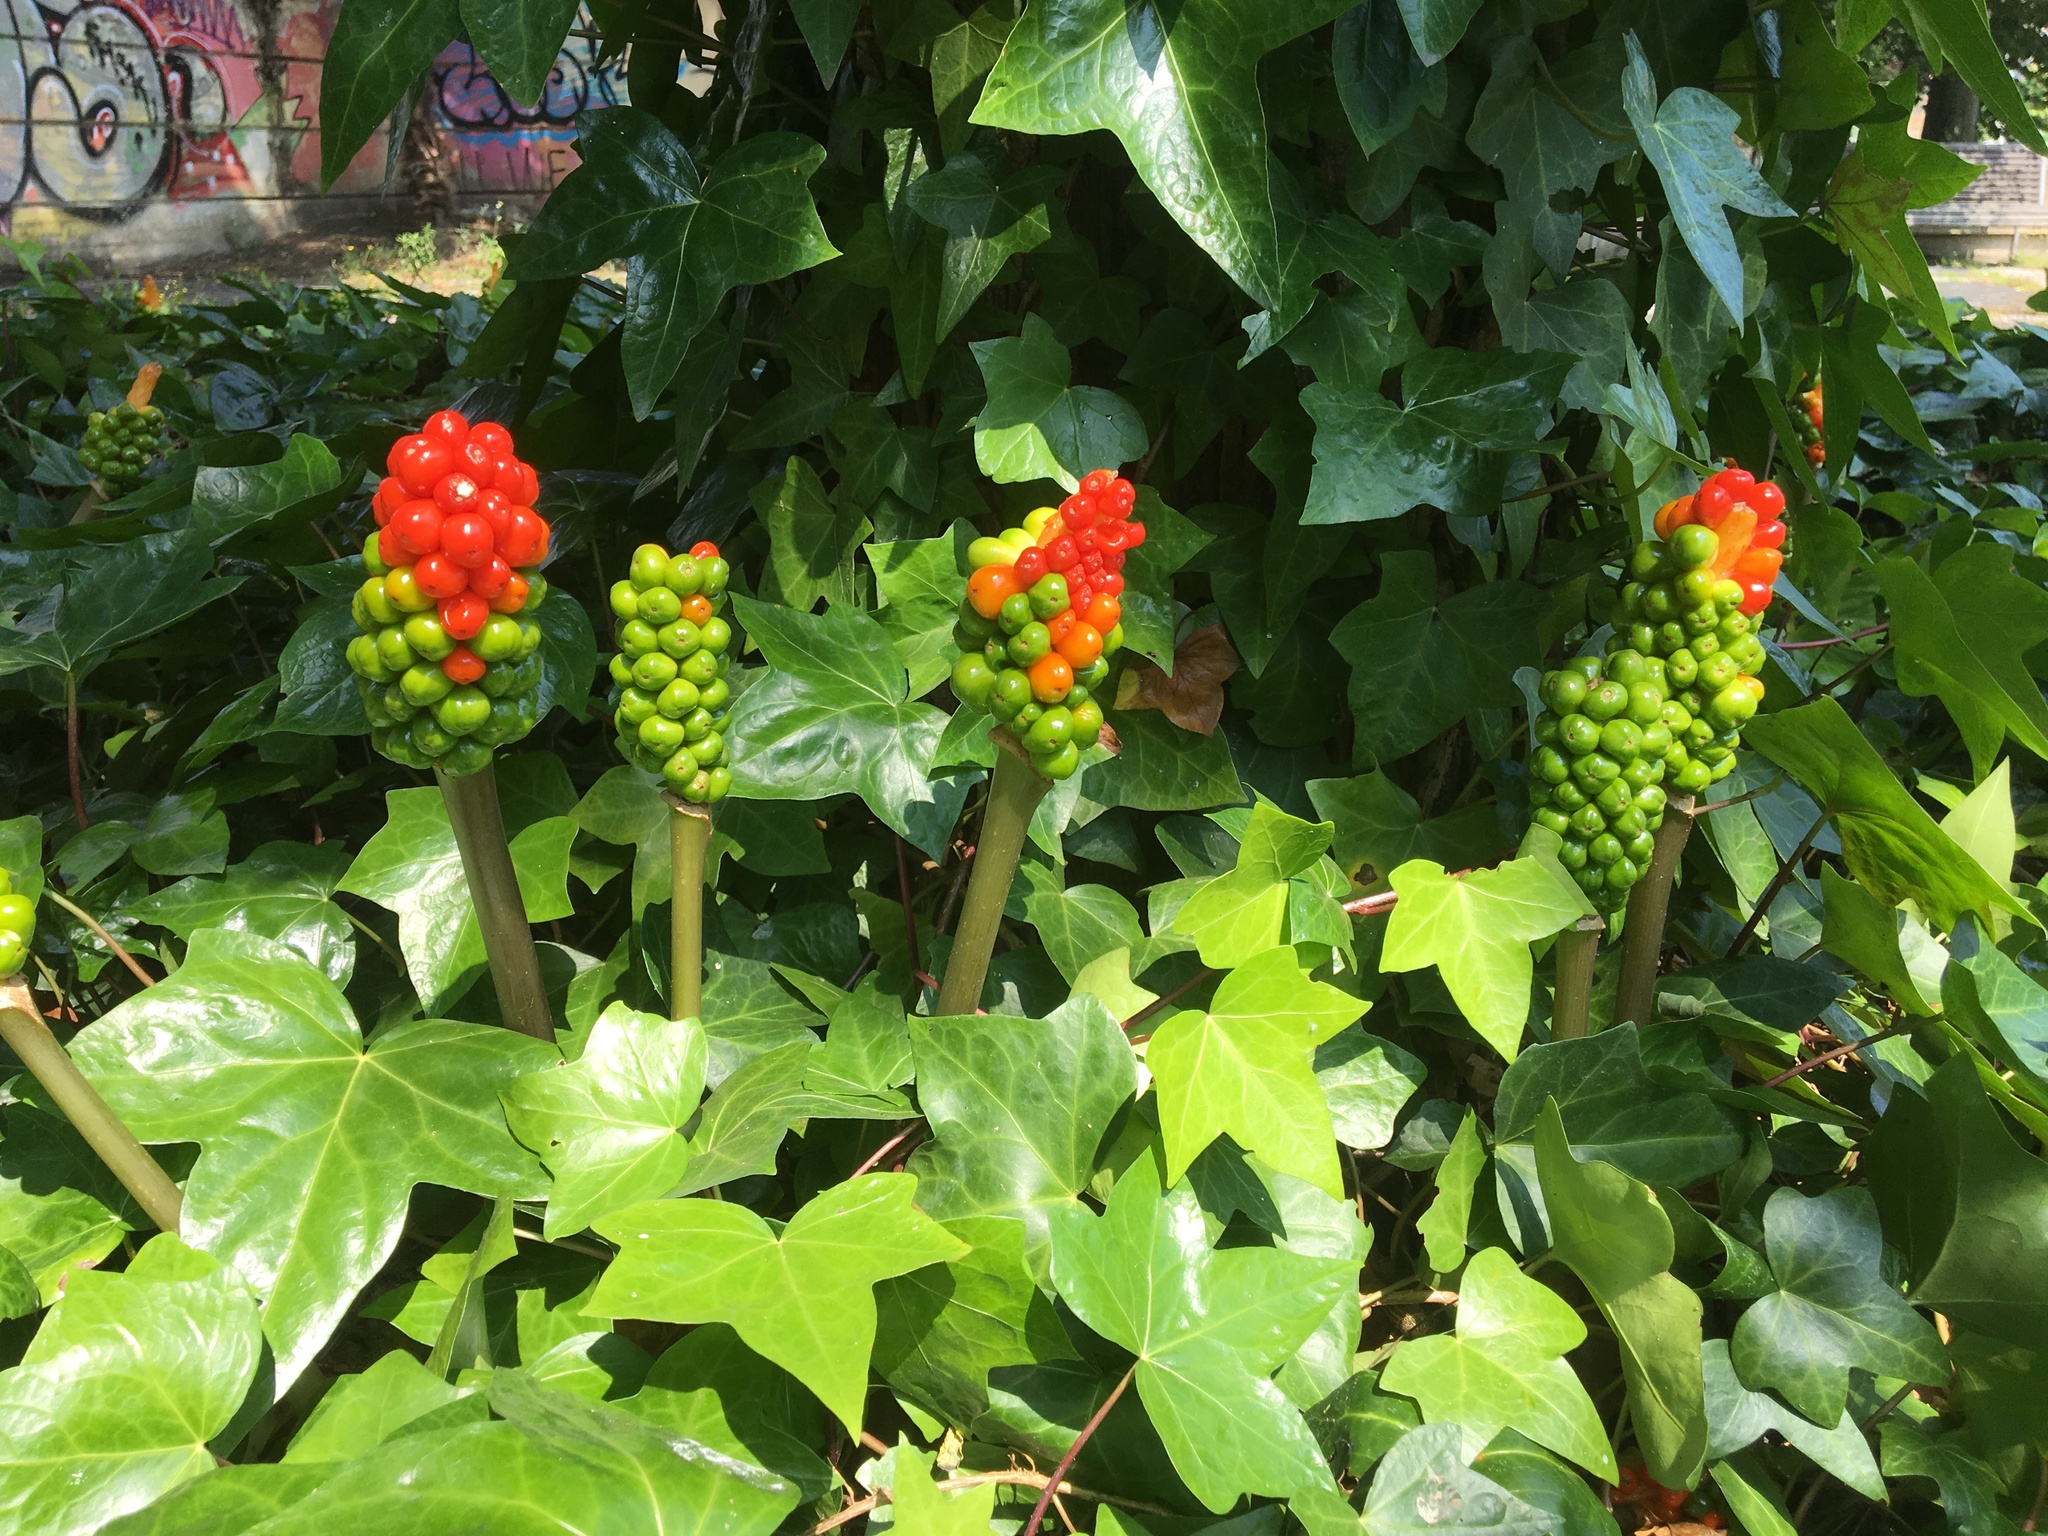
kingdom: Plantae
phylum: Tracheophyta
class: Liliopsida
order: Alismatales
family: Araceae
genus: Arum
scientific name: Arum italicum
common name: Italian lords-and-ladies
